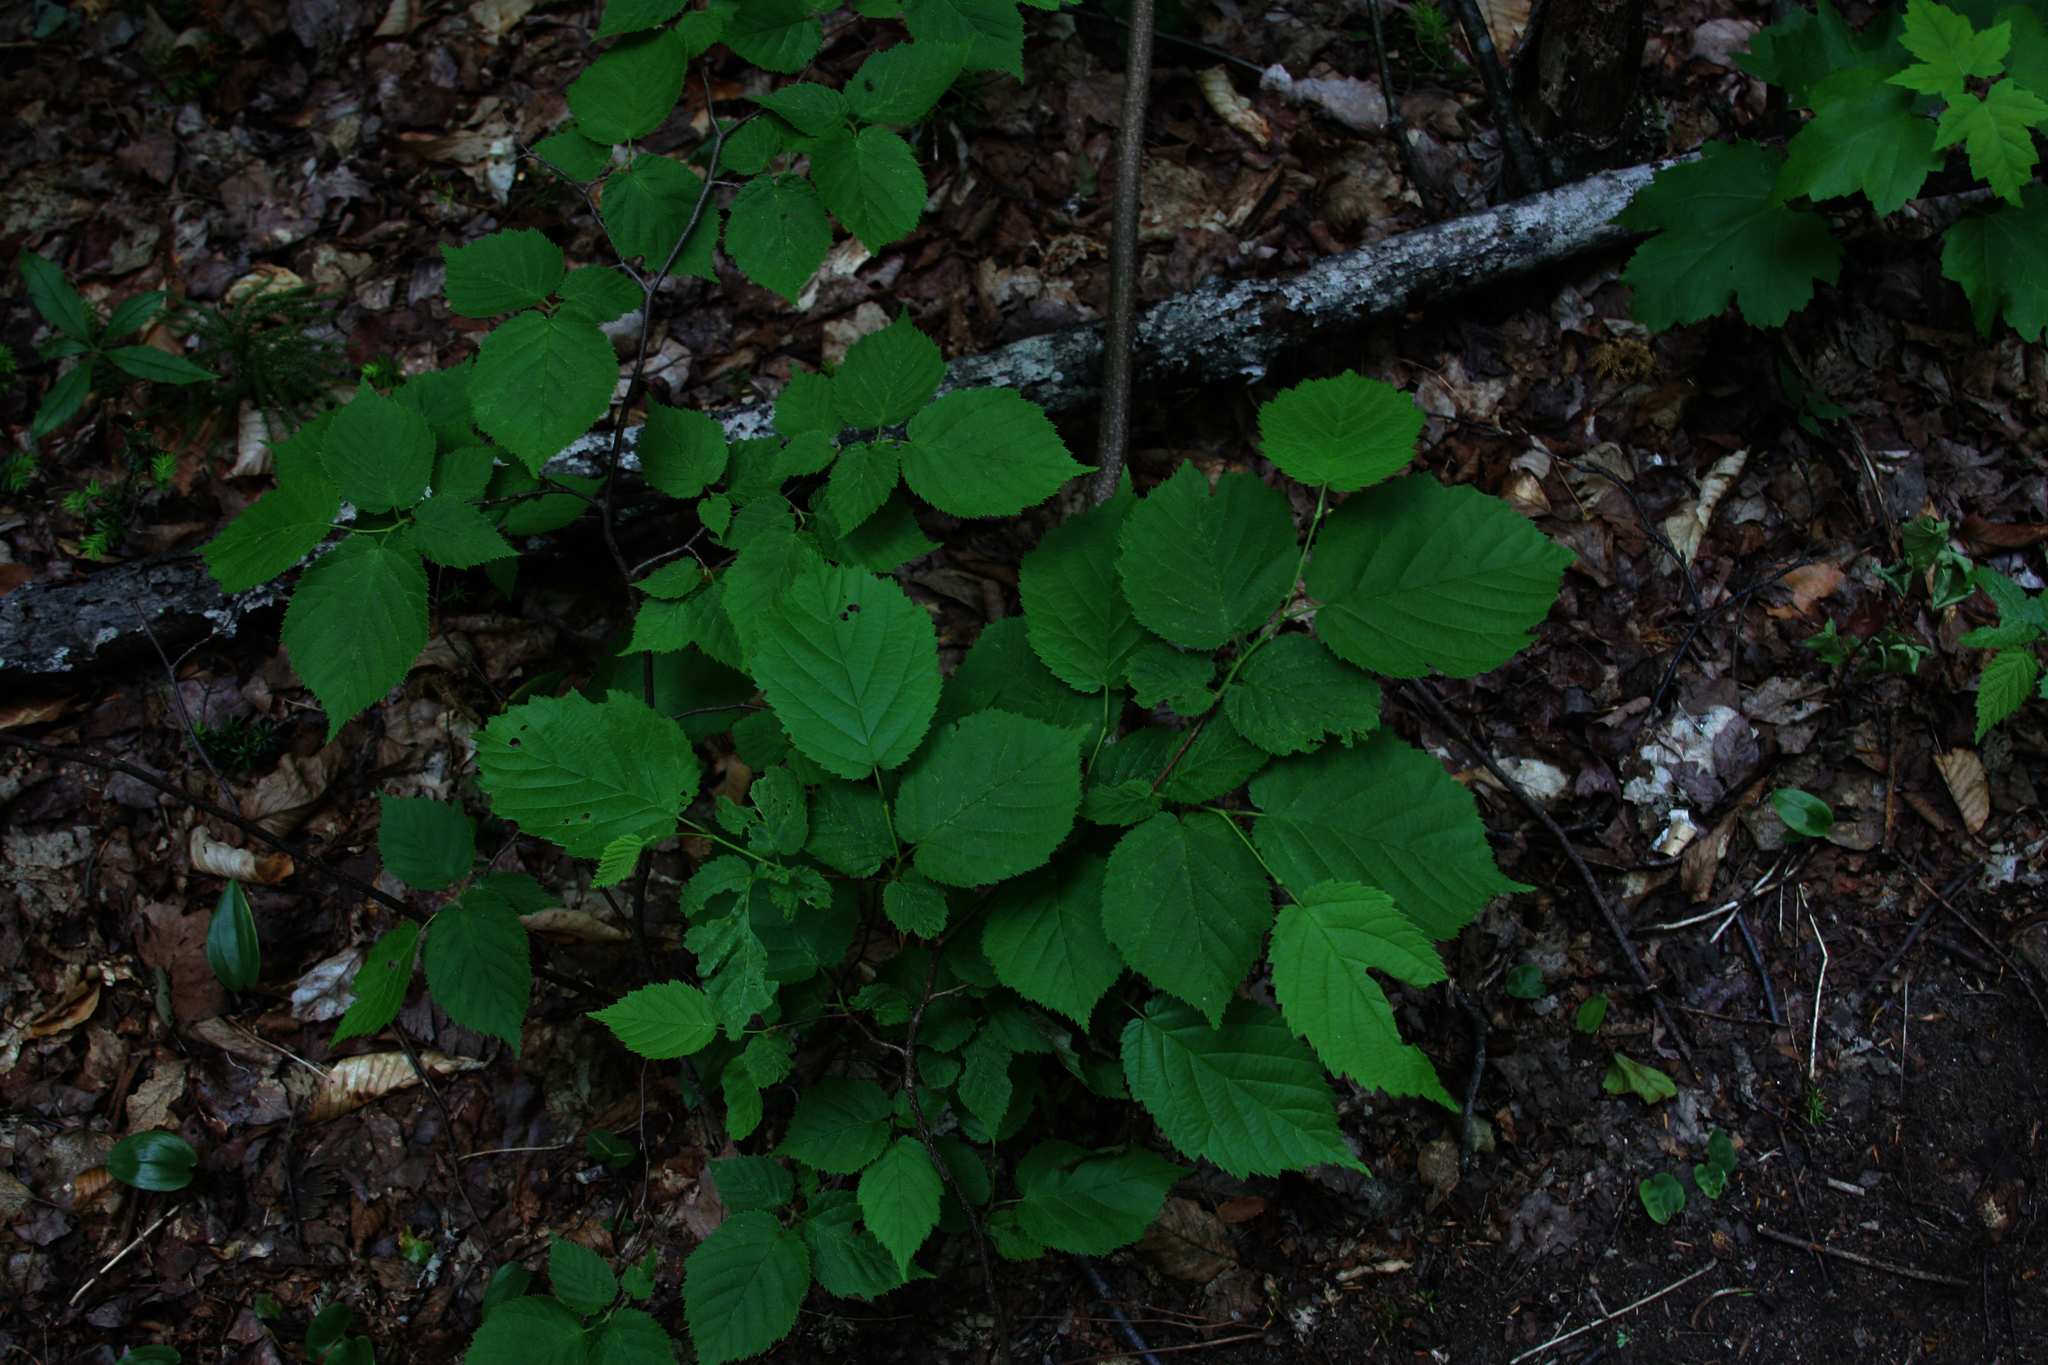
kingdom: Plantae
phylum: Tracheophyta
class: Magnoliopsida
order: Malvales
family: Malvaceae
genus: Tilia
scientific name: Tilia americana
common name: Basswood
